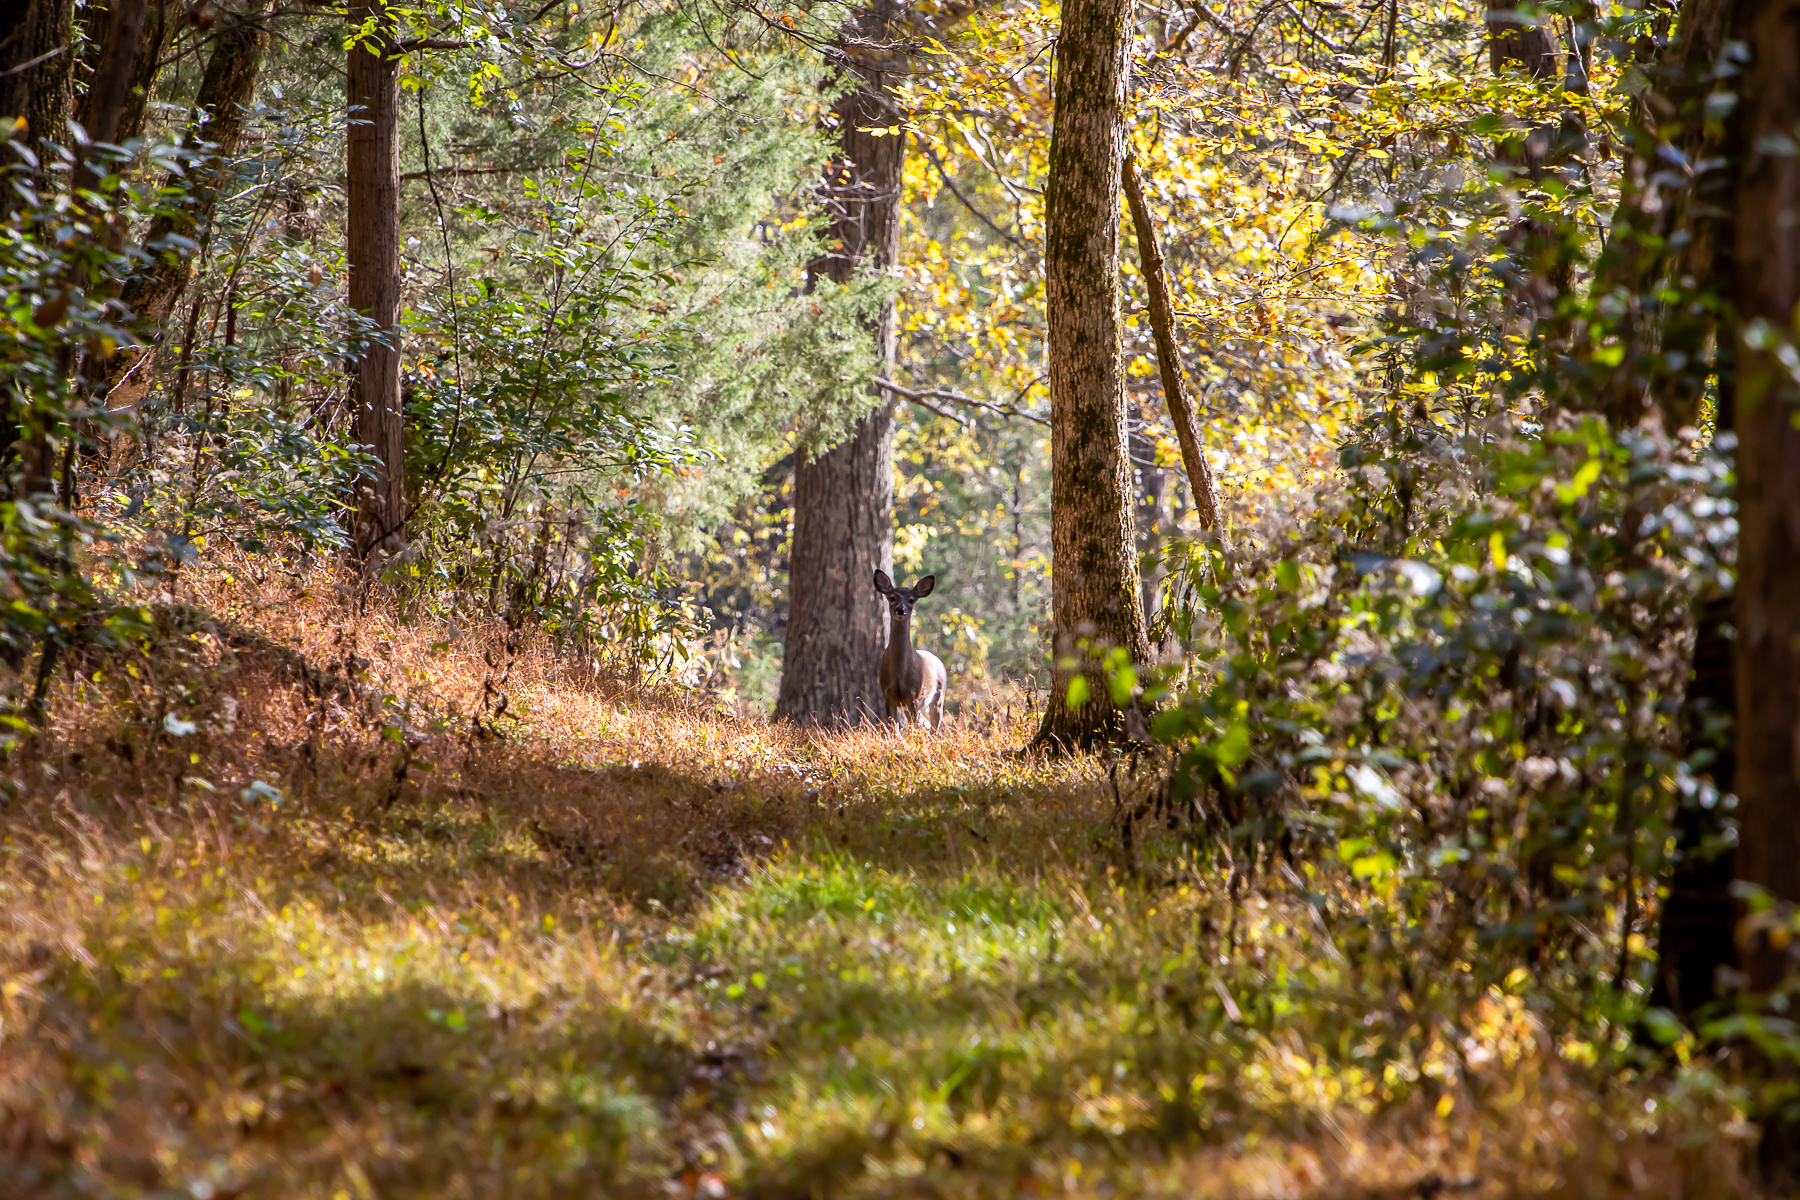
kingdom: Animalia
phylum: Chordata
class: Mammalia
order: Artiodactyla
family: Cervidae
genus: Odocoileus
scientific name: Odocoileus virginianus
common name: White-tailed deer
